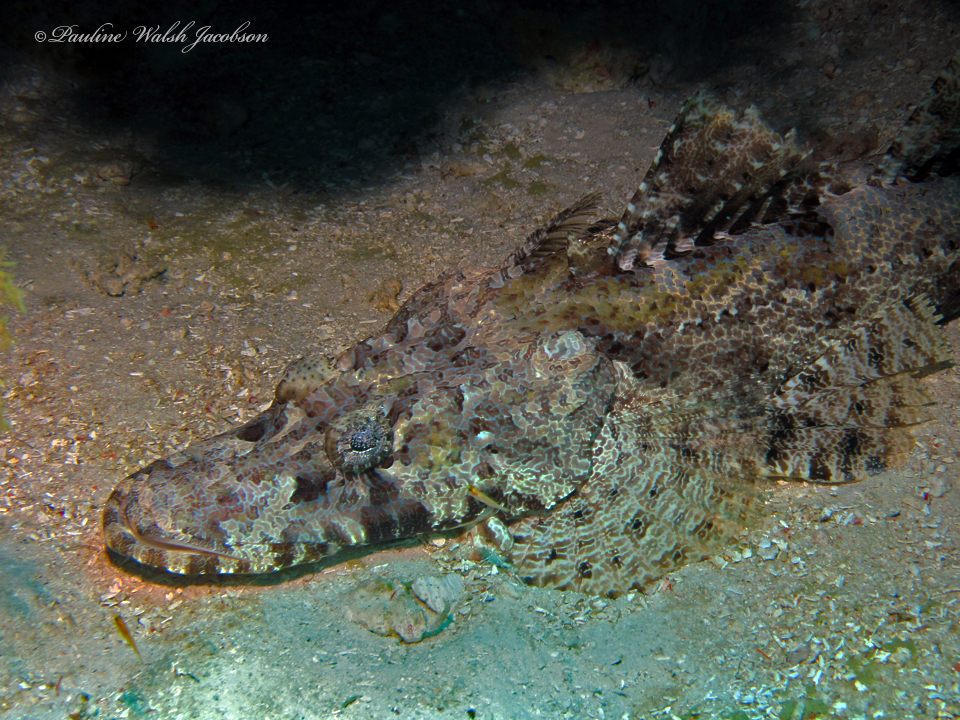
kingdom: Animalia
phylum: Chordata
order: Scorpaeniformes
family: Platycephalidae
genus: Cymbacephalus
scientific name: Cymbacephalus beauforti
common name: Crocodile fish
